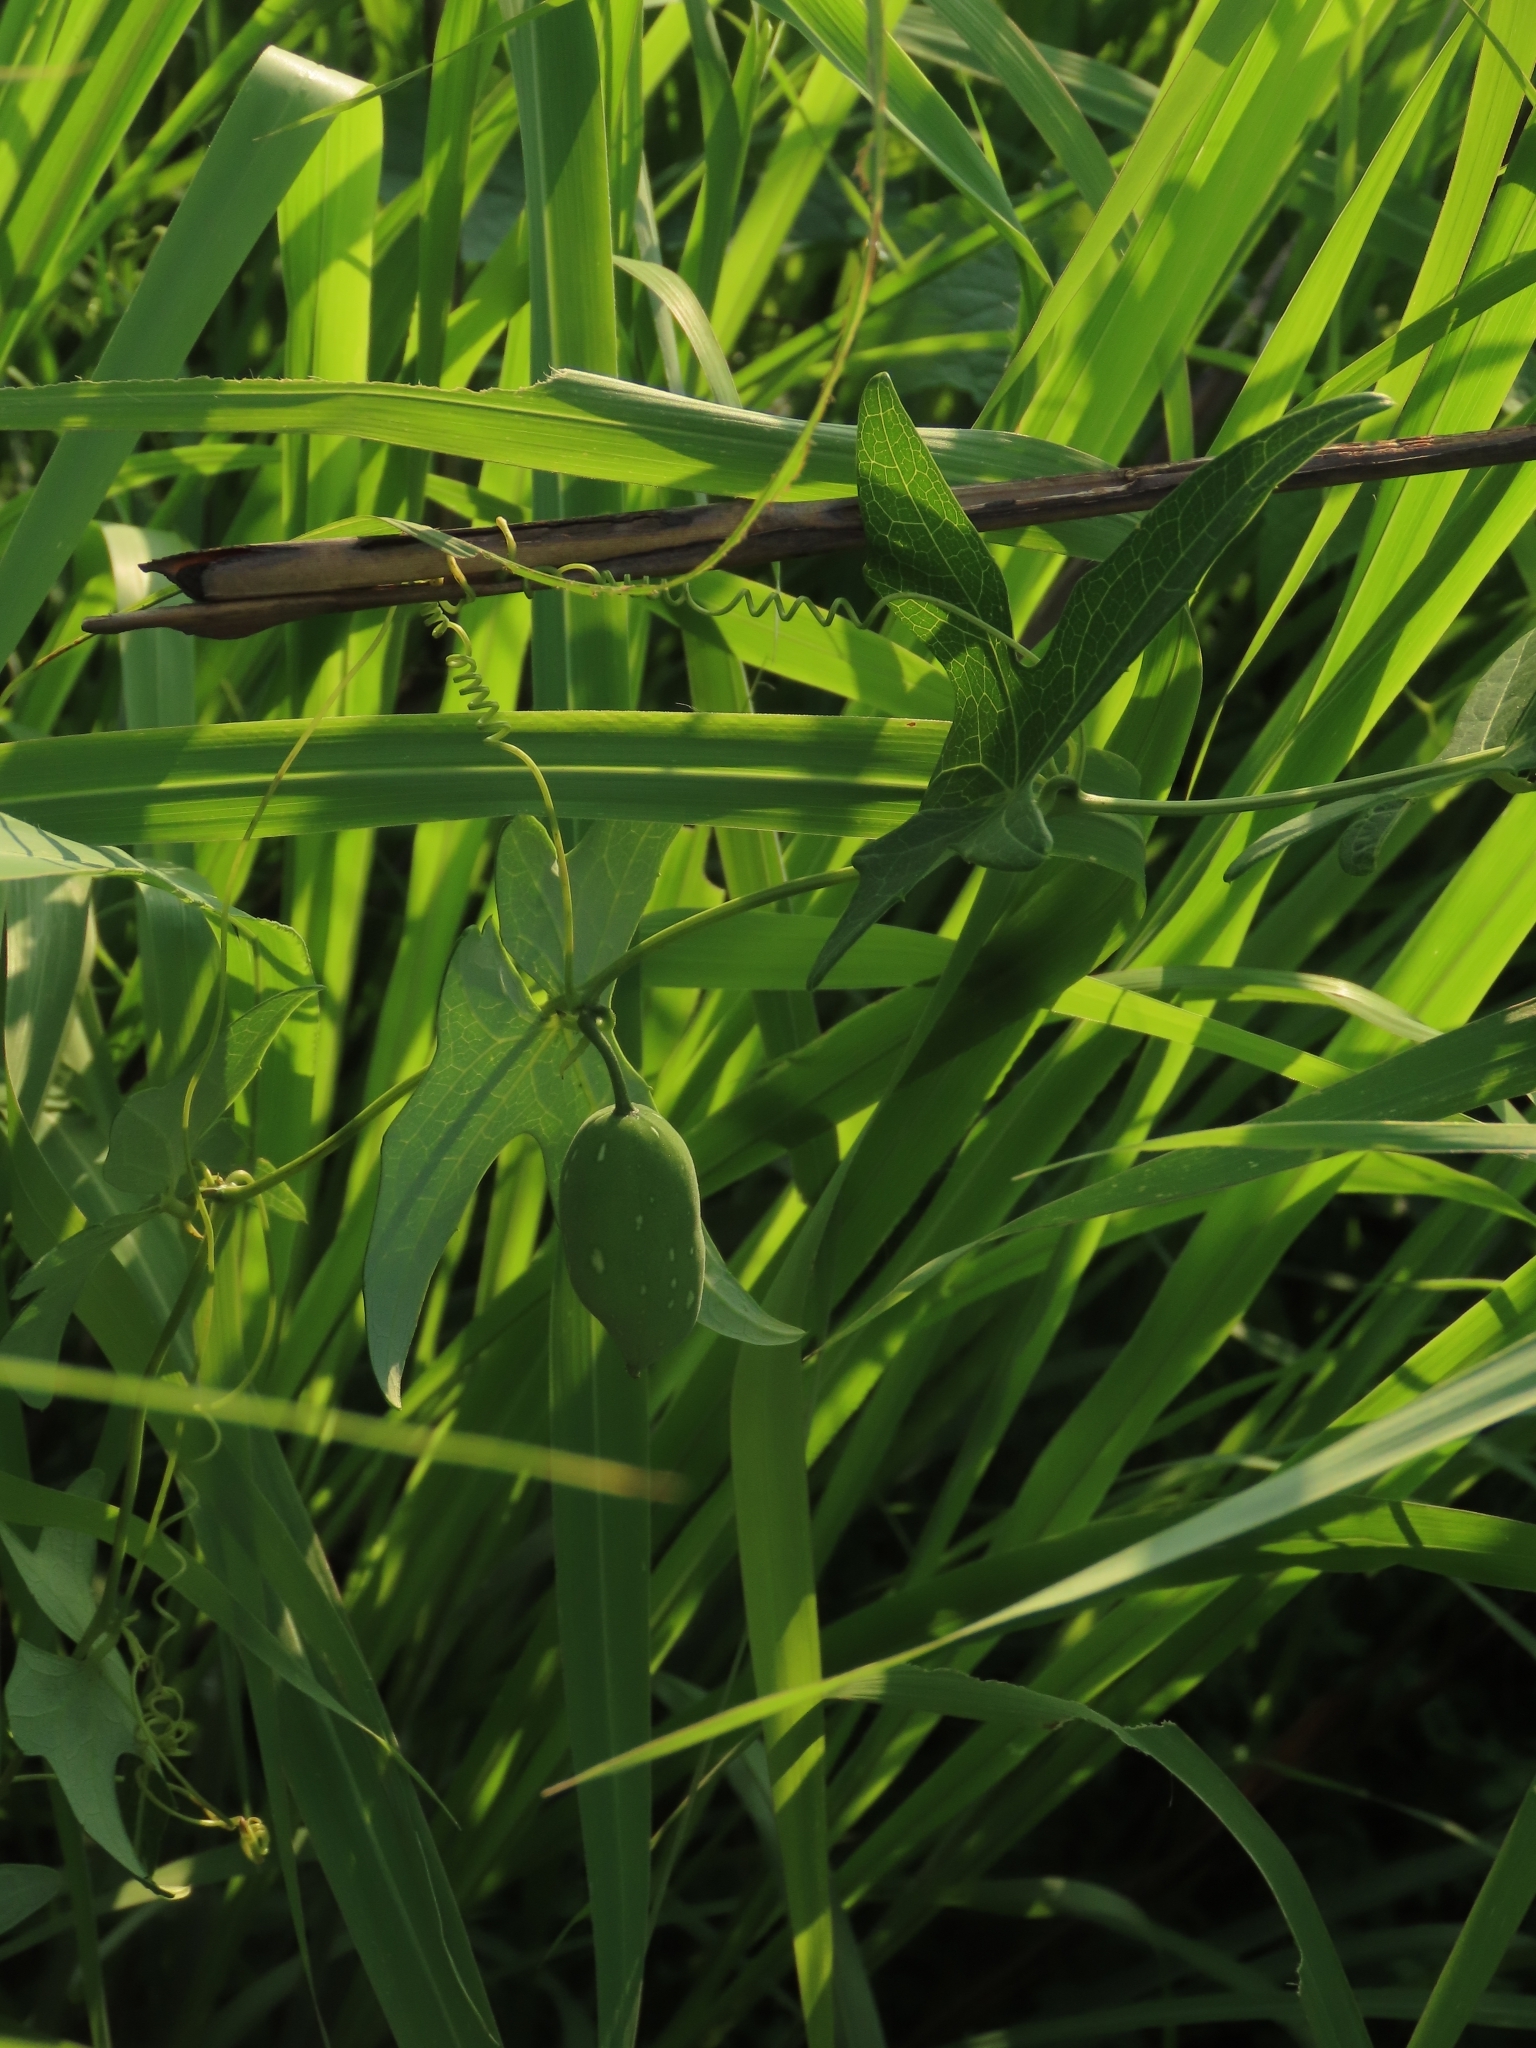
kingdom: Plantae
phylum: Tracheophyta
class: Magnoliopsida
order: Cucurbitales
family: Cucurbitaceae
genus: Solena
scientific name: Solena amplexicaulis
